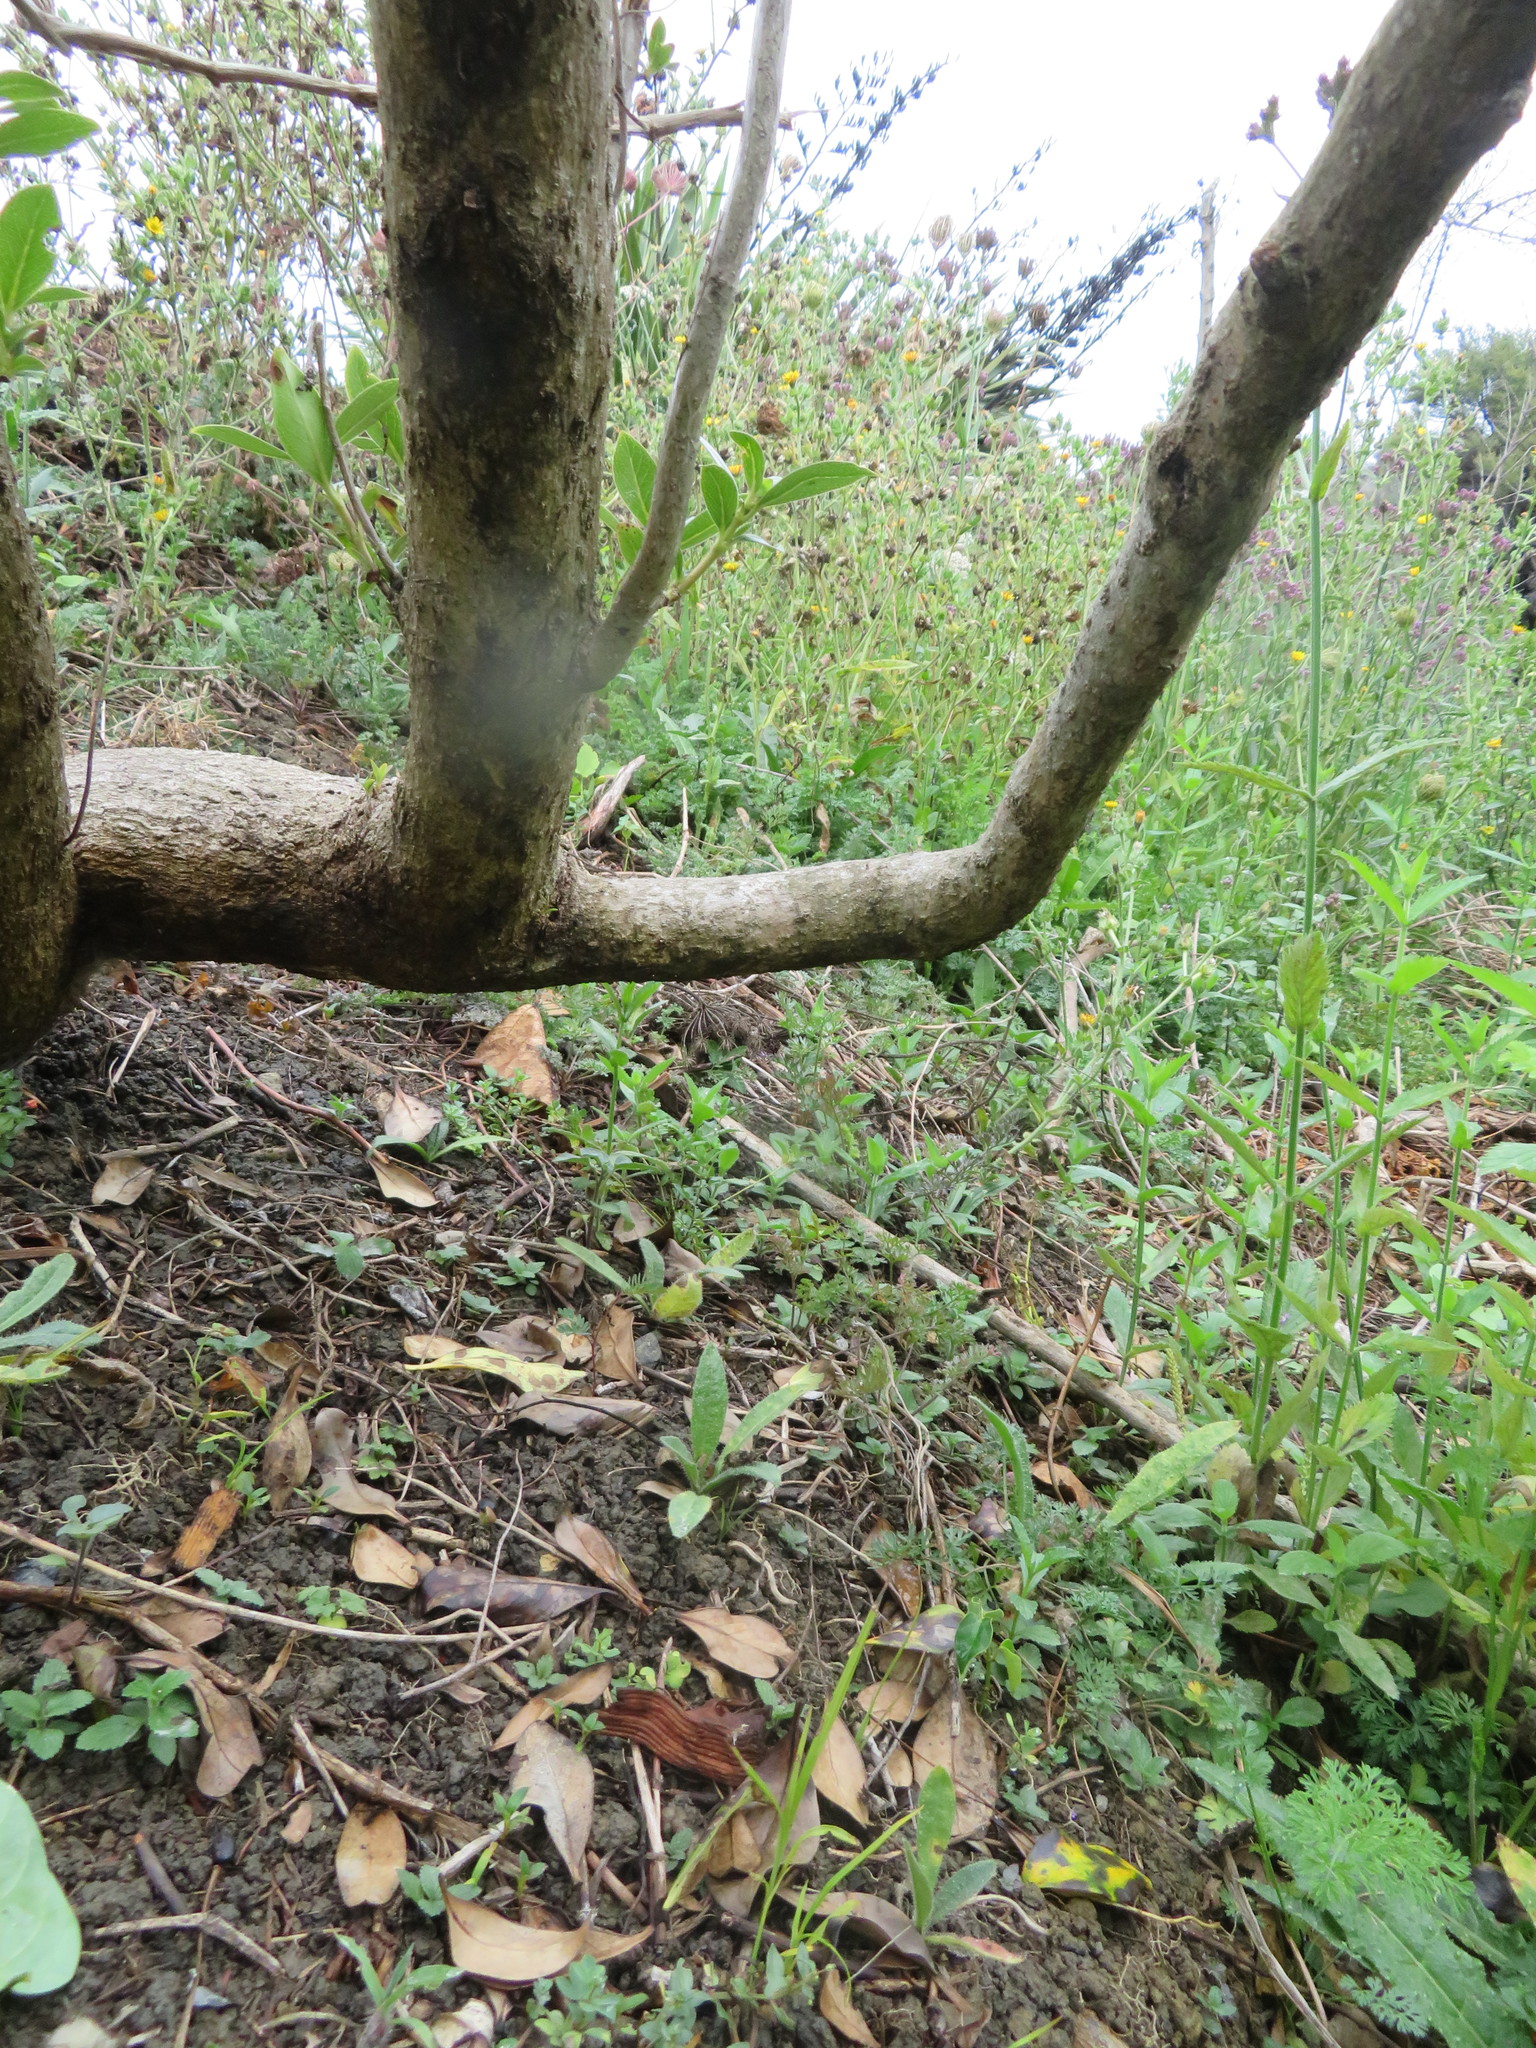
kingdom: Plantae
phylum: Tracheophyta
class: Magnoliopsida
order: Fabales
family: Fabaceae
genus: Paraserianthes
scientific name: Paraserianthes lophantha
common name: Plume albizia
